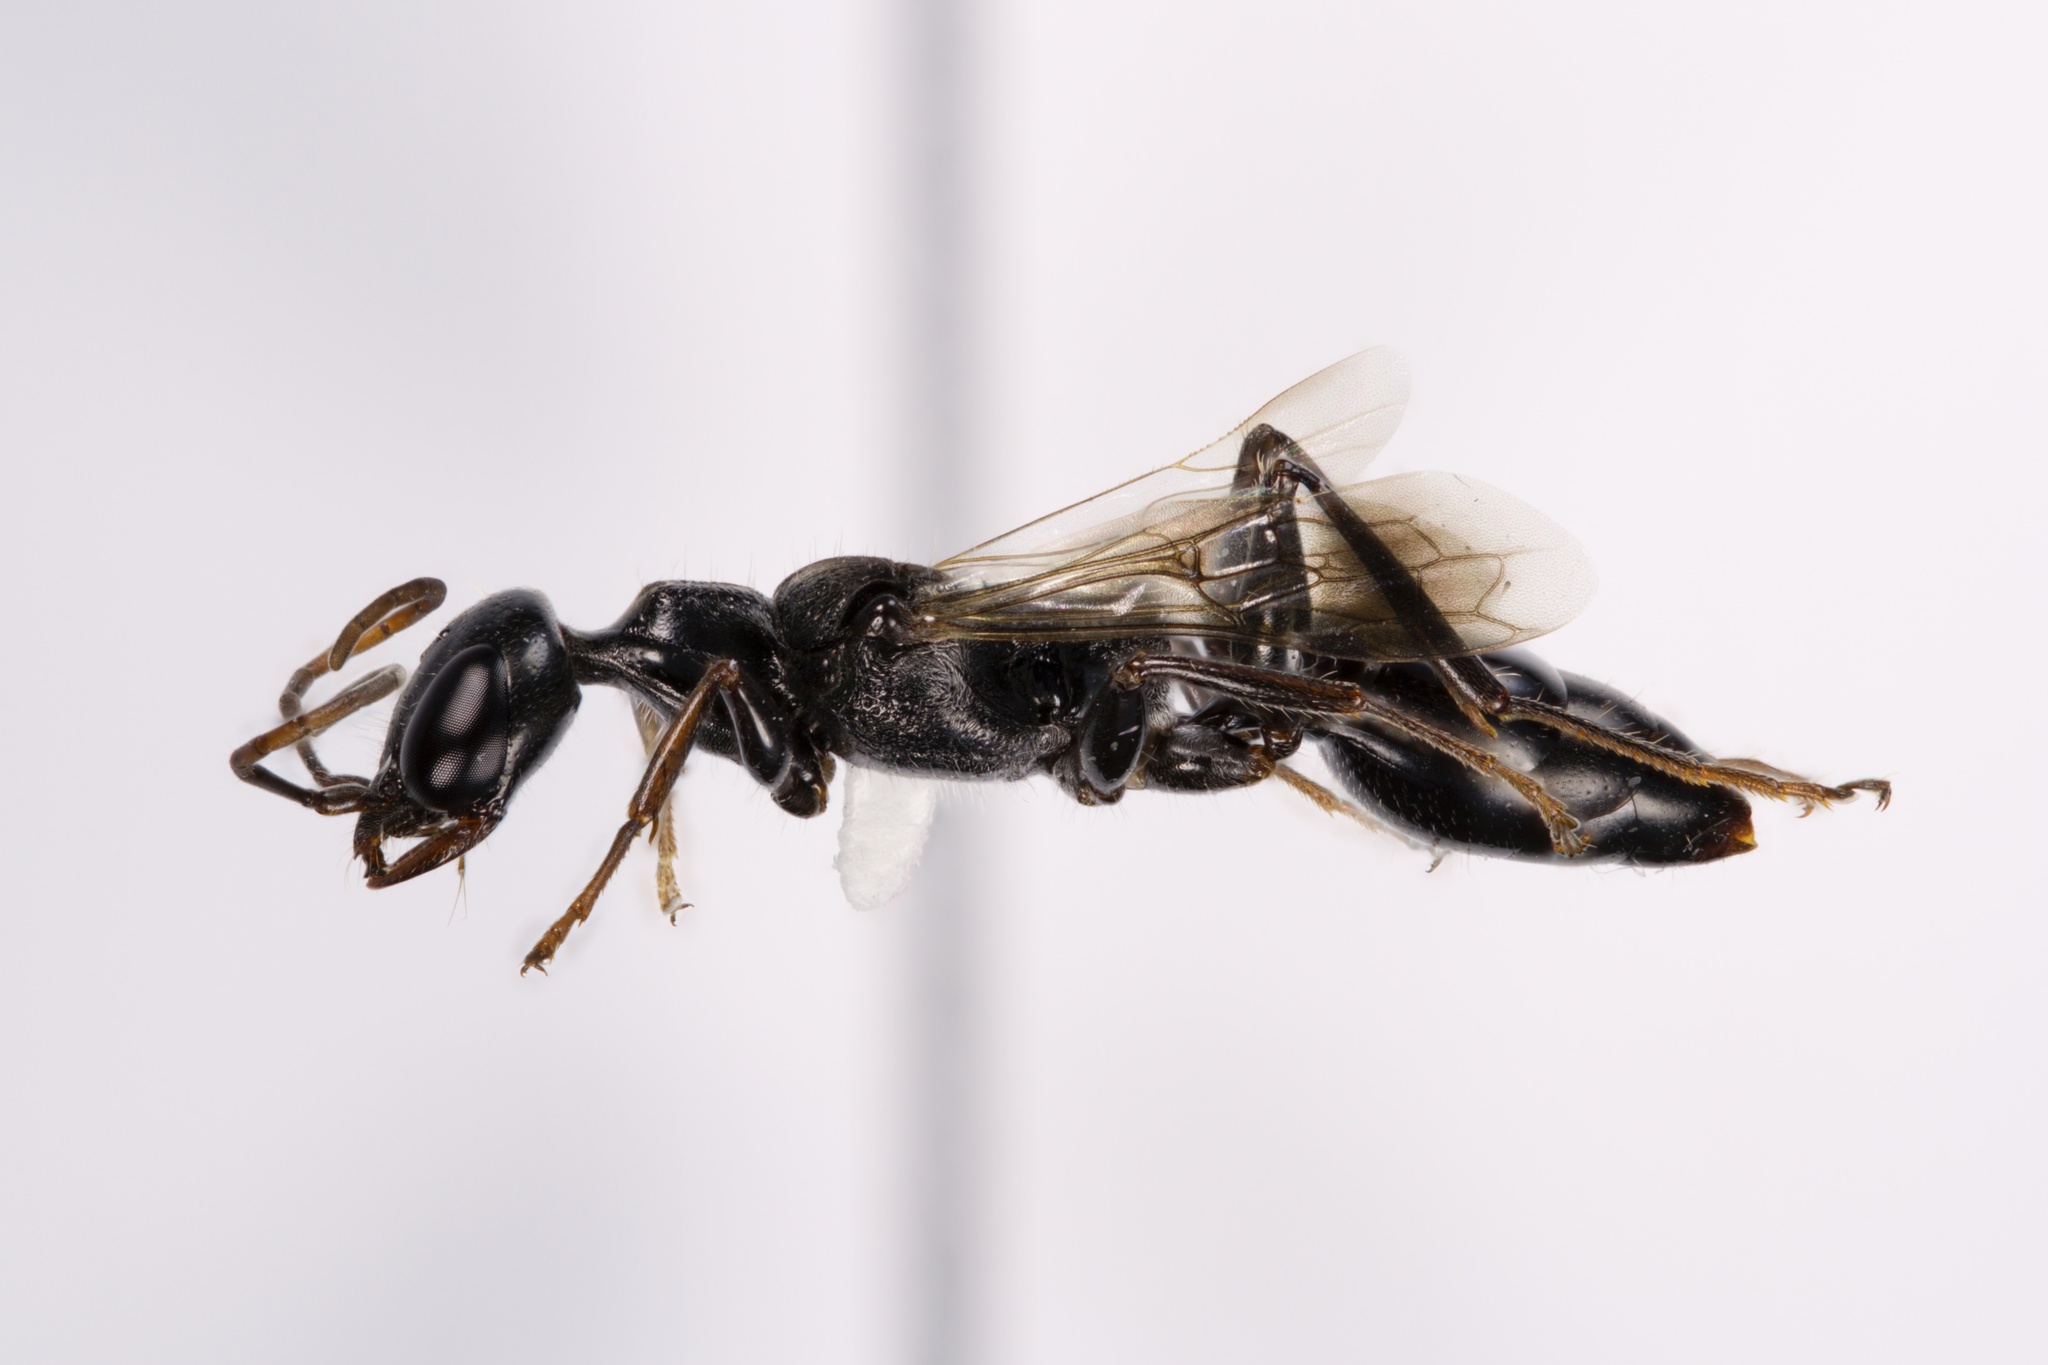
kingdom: Animalia
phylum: Arthropoda
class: Insecta
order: Hymenoptera
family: Ampulicidae
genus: Ampulex
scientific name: Ampulex canaliculata
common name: Cockroach wasp
